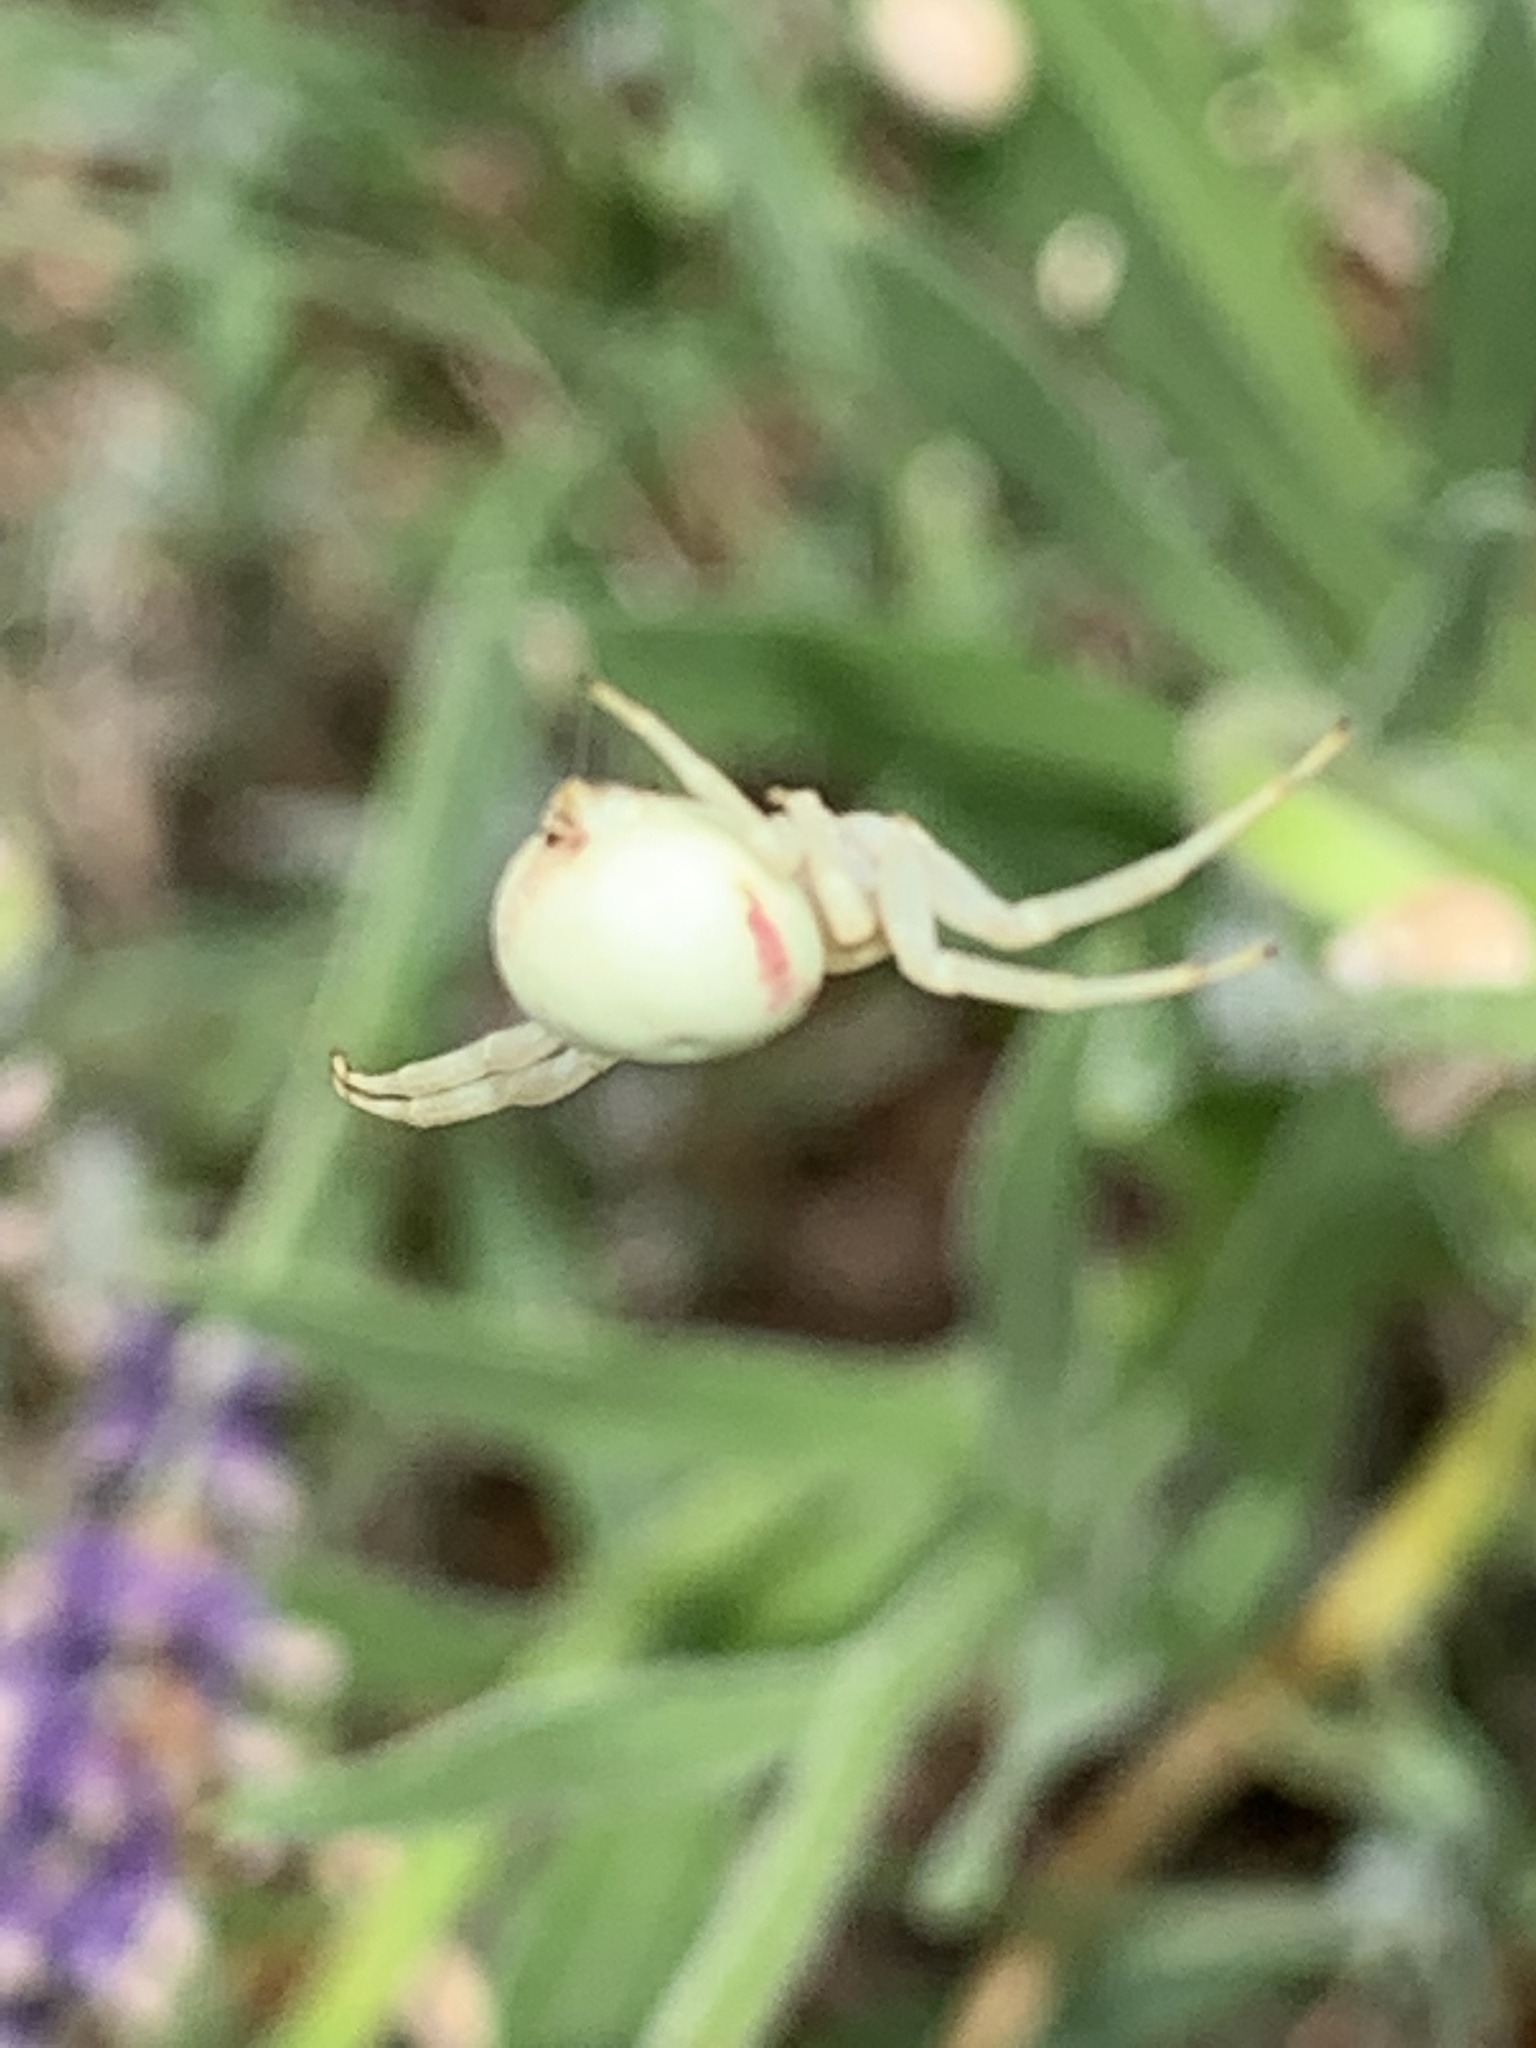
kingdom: Animalia
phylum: Arthropoda
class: Arachnida
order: Araneae
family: Thomisidae
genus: Misumena
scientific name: Misumena vatia
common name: Goldenrod crab spider
